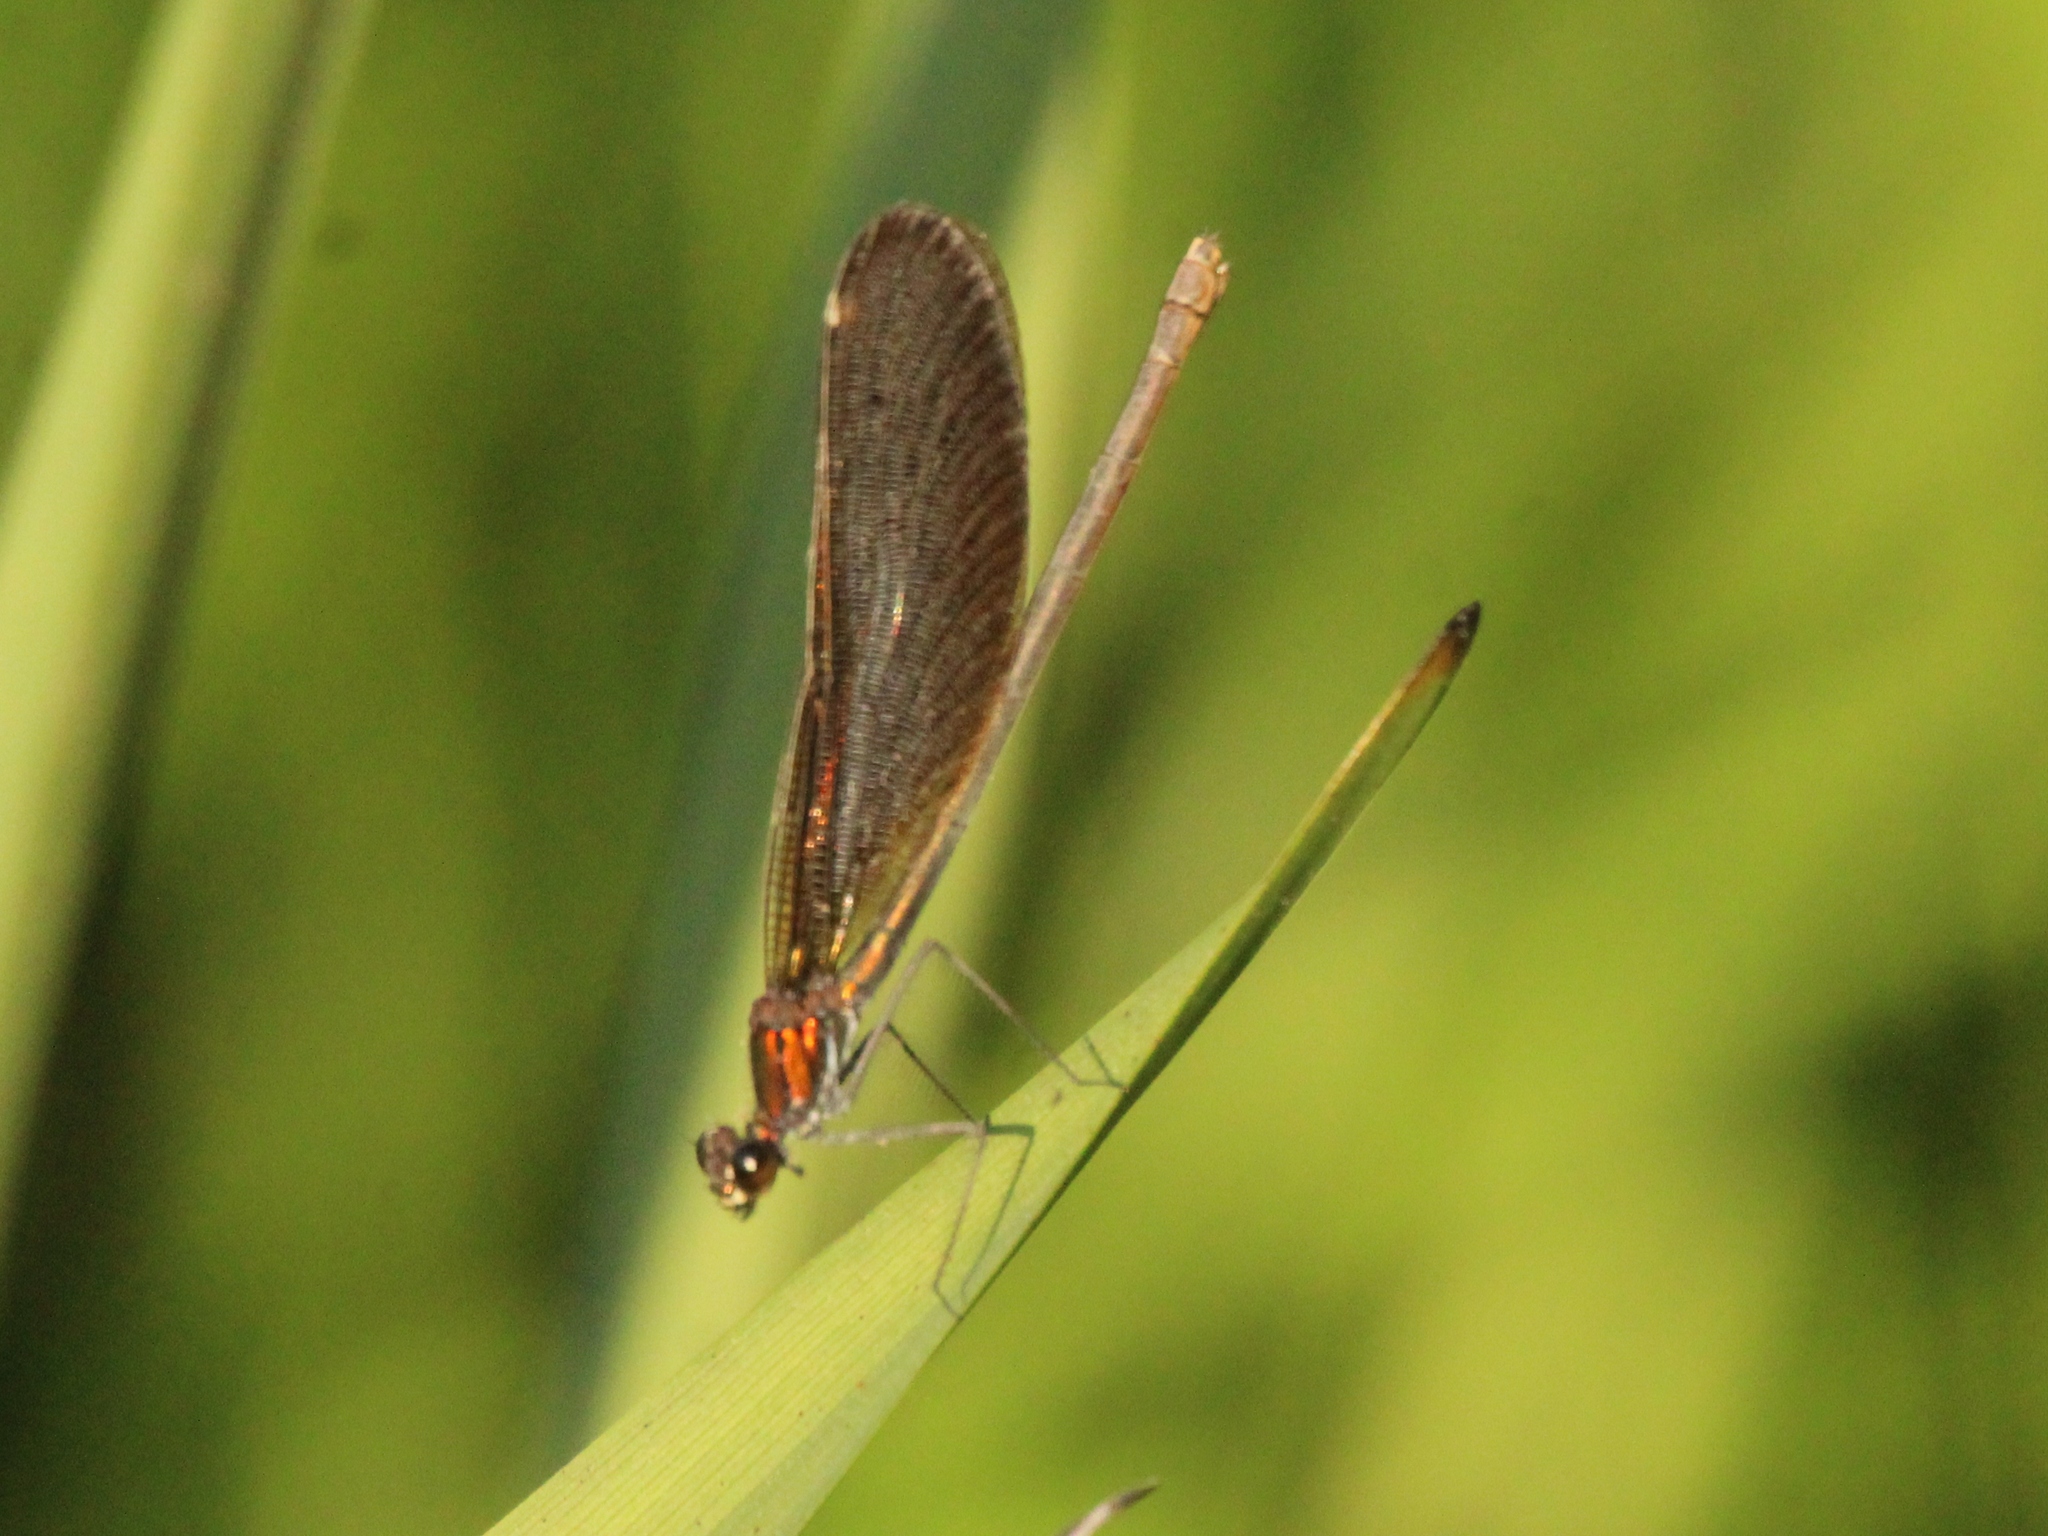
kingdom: Animalia
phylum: Arthropoda
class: Insecta
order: Odonata
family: Calopterygidae
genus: Calopteryx
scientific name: Calopteryx virgo
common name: Beautiful demoiselle
